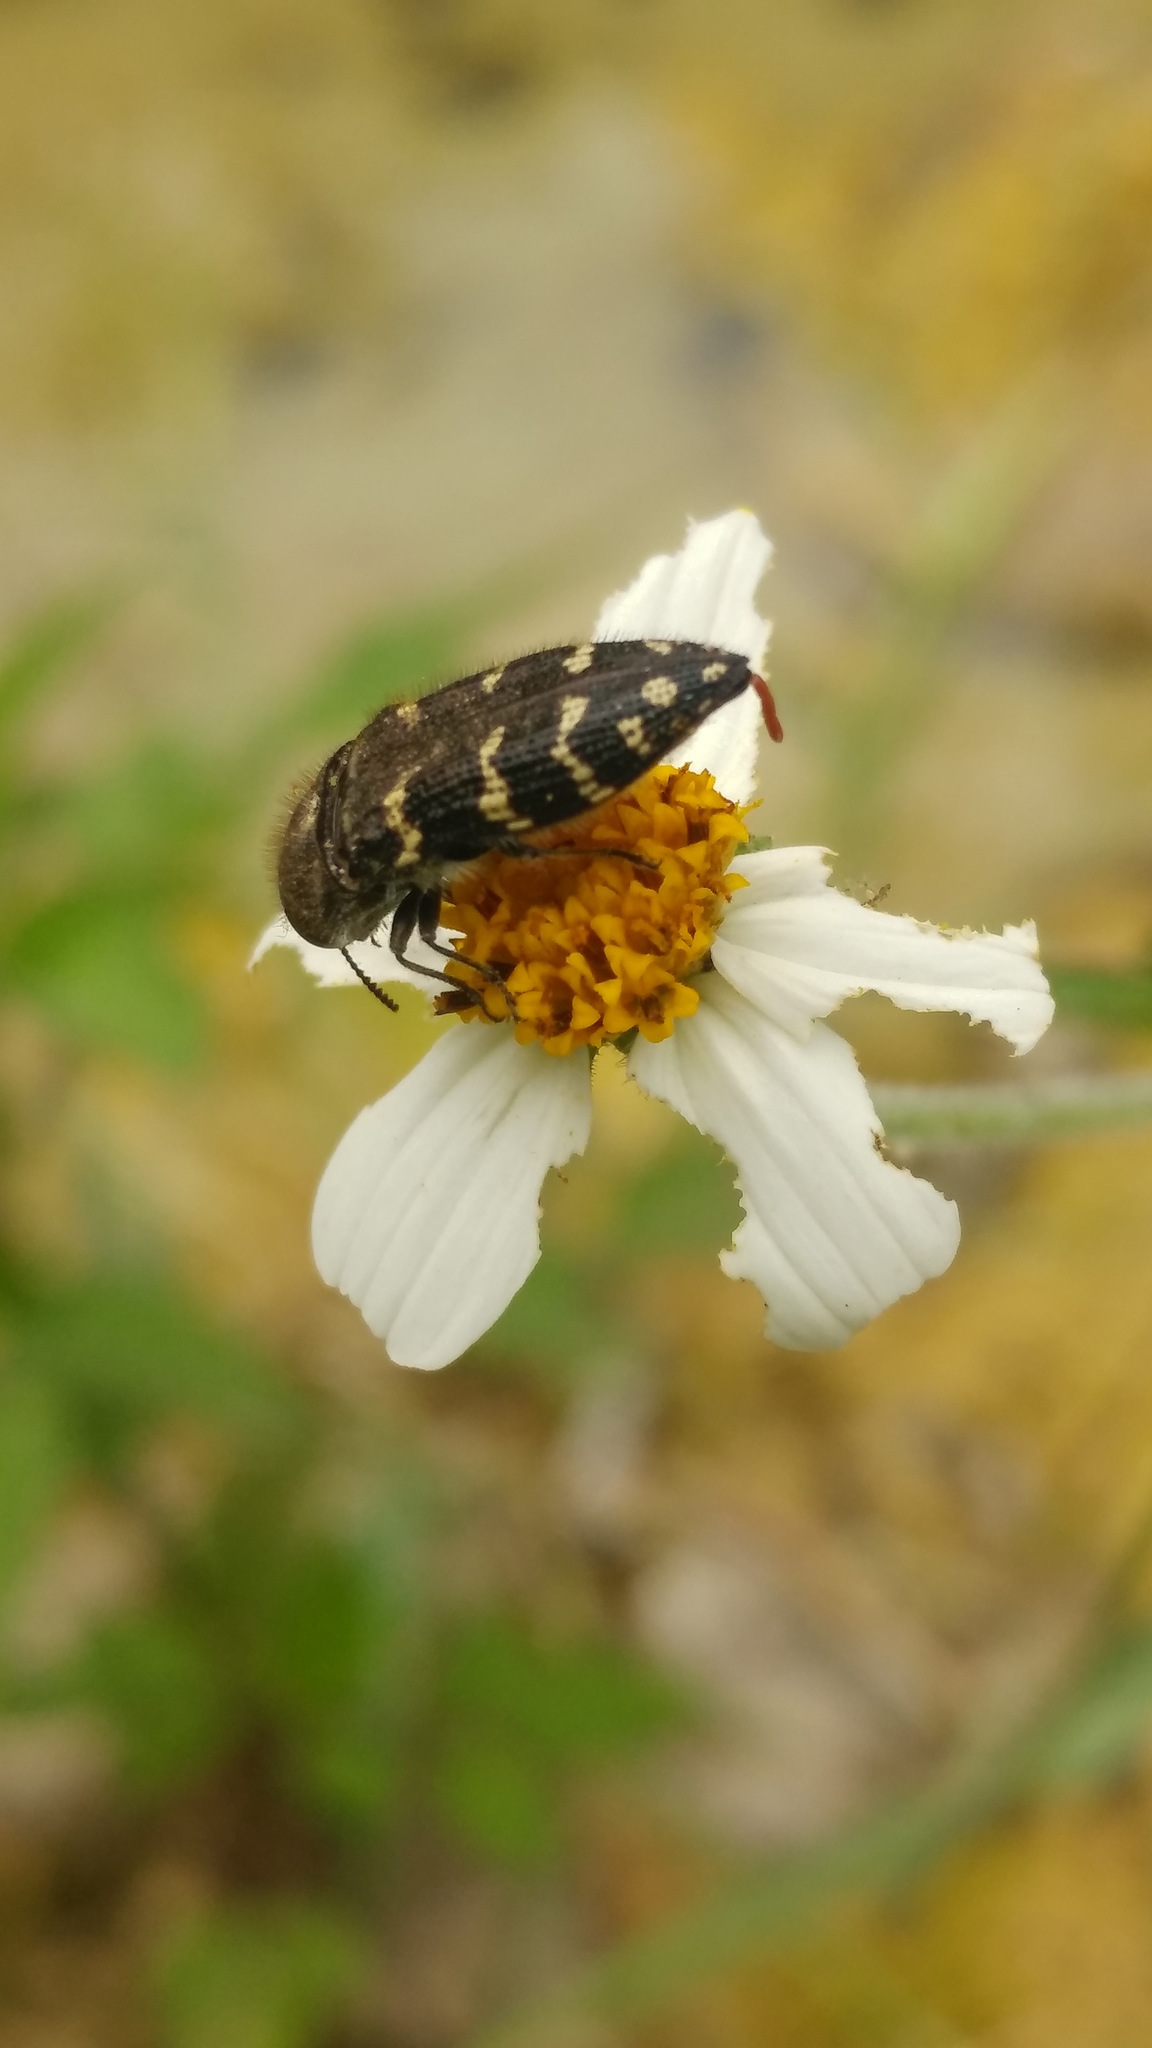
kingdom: Animalia
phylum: Arthropoda
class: Insecta
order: Coleoptera
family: Buprestidae
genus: Acmaeodera
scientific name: Acmaeodera mixta
